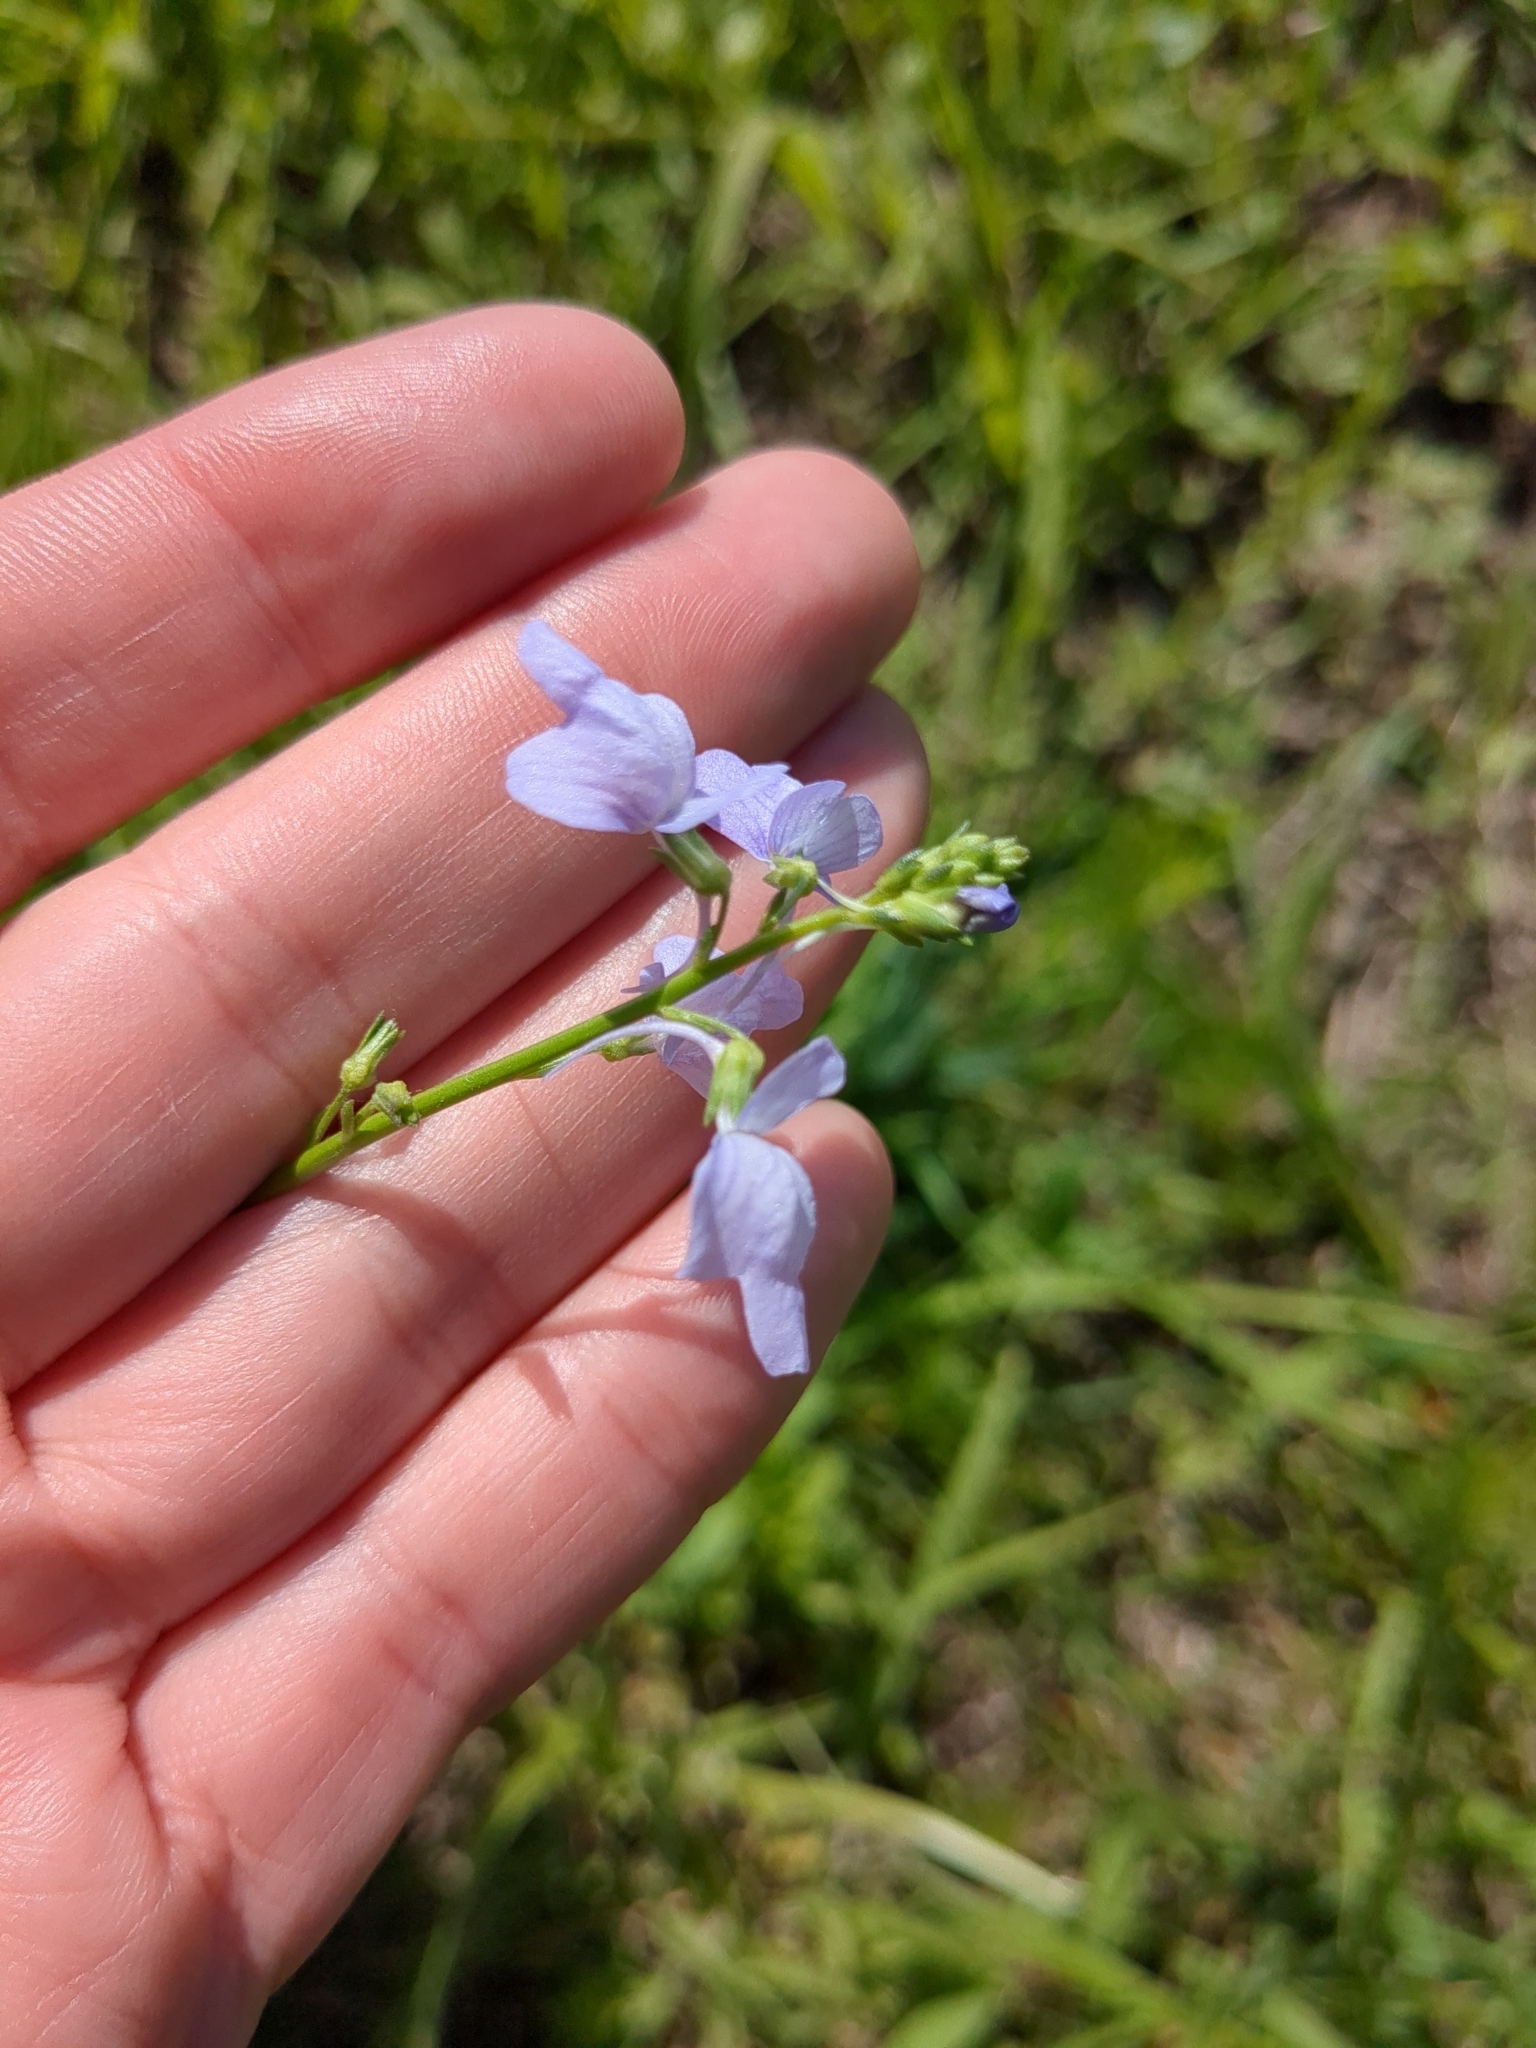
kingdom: Plantae
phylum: Tracheophyta
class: Magnoliopsida
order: Lamiales
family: Plantaginaceae
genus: Nuttallanthus
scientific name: Nuttallanthus texanus
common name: Texas toadflax
